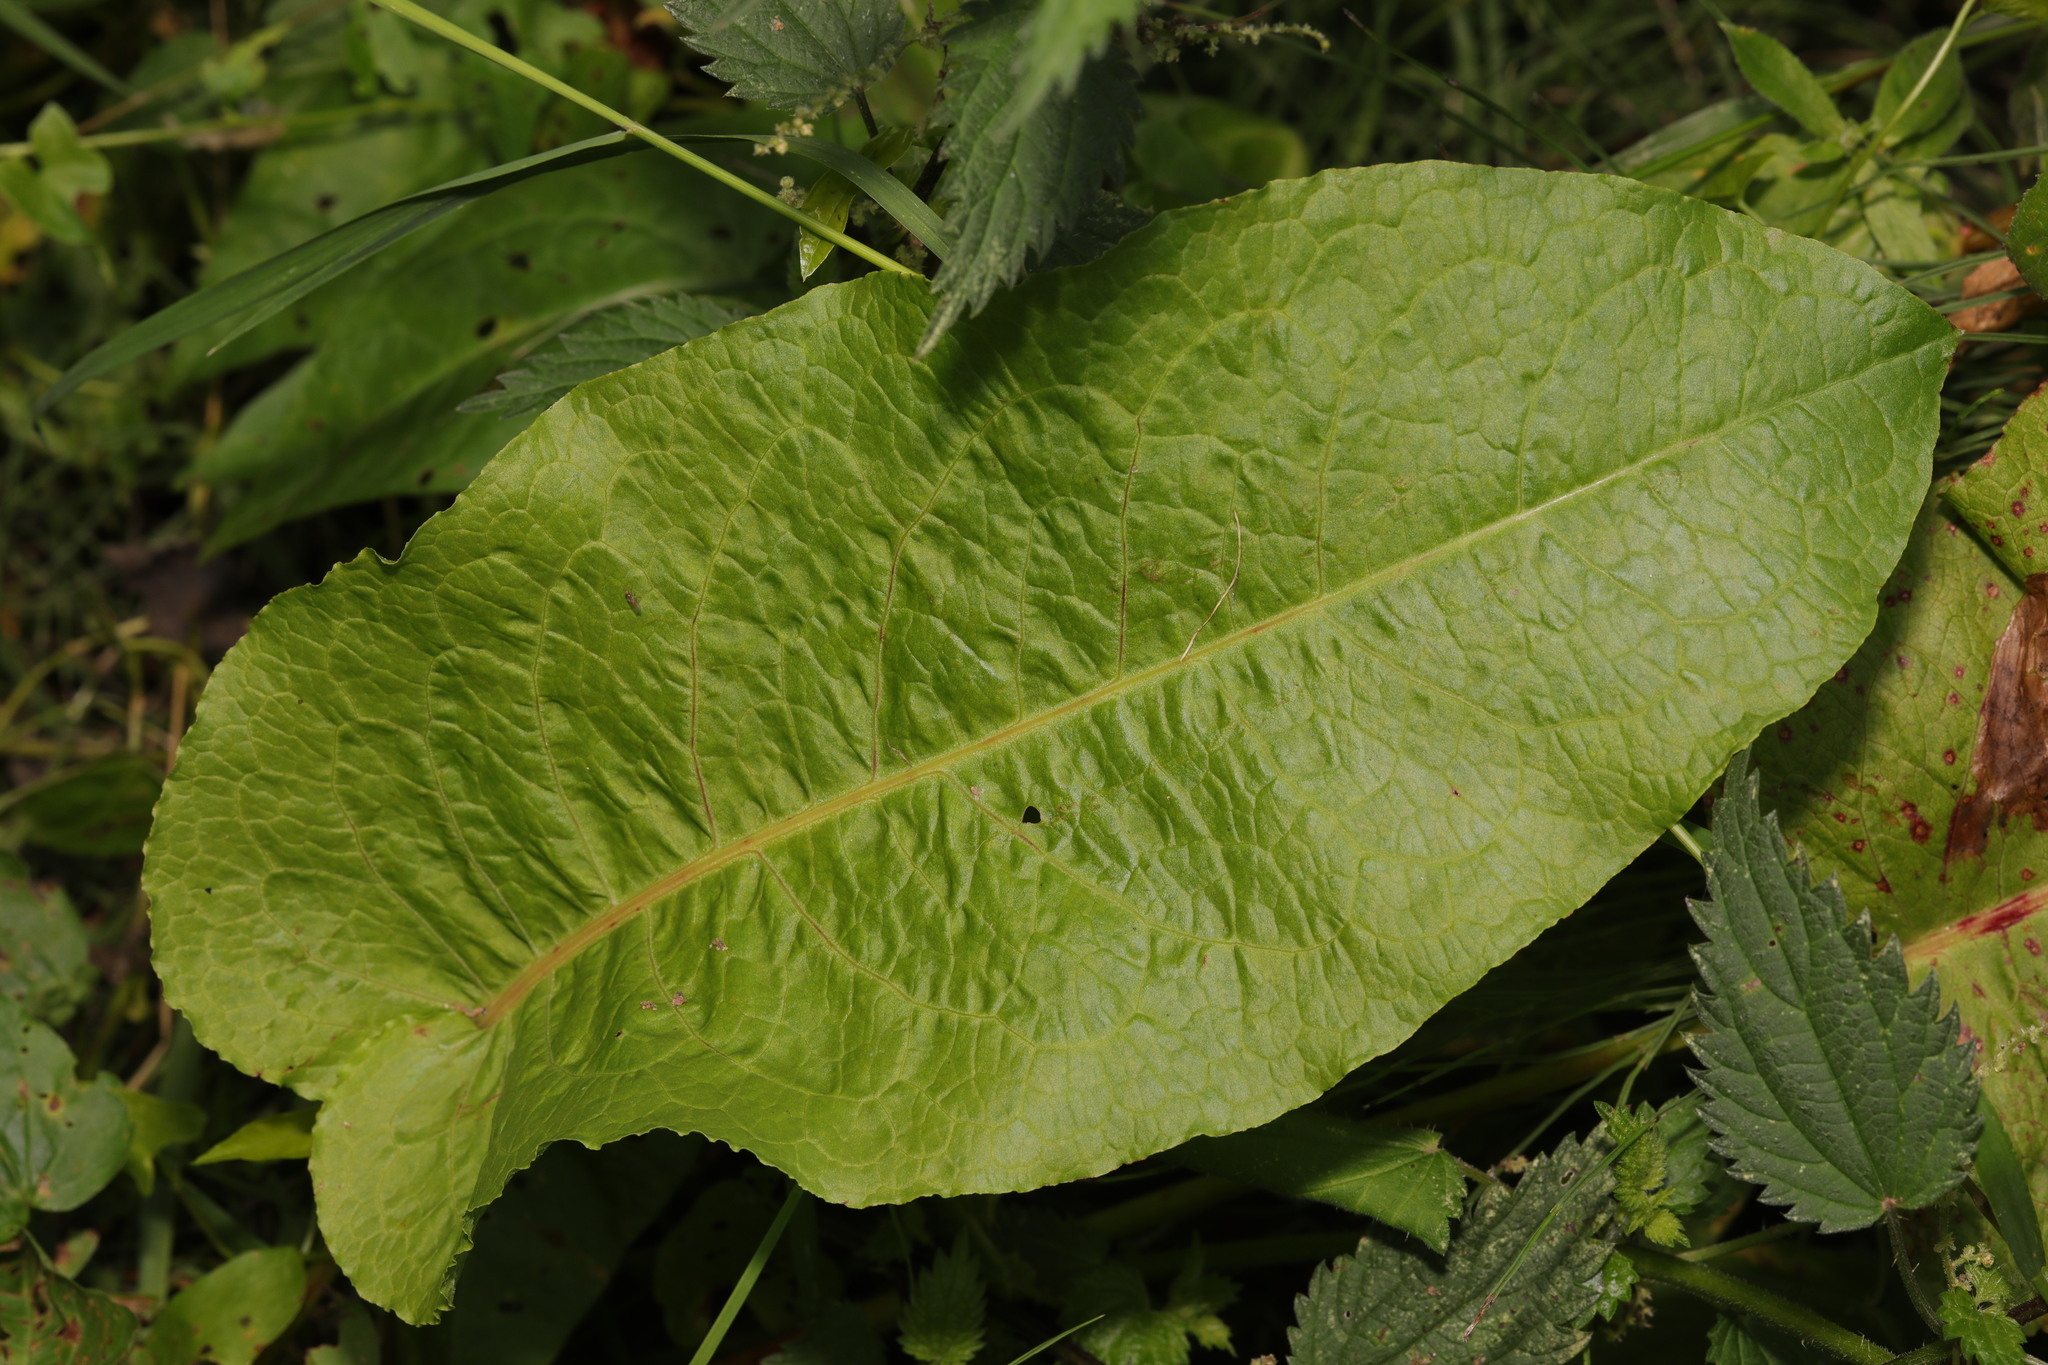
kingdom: Plantae
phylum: Tracheophyta
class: Magnoliopsida
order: Caryophyllales
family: Polygonaceae
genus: Rumex
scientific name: Rumex obtusifolius
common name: Bitter dock
